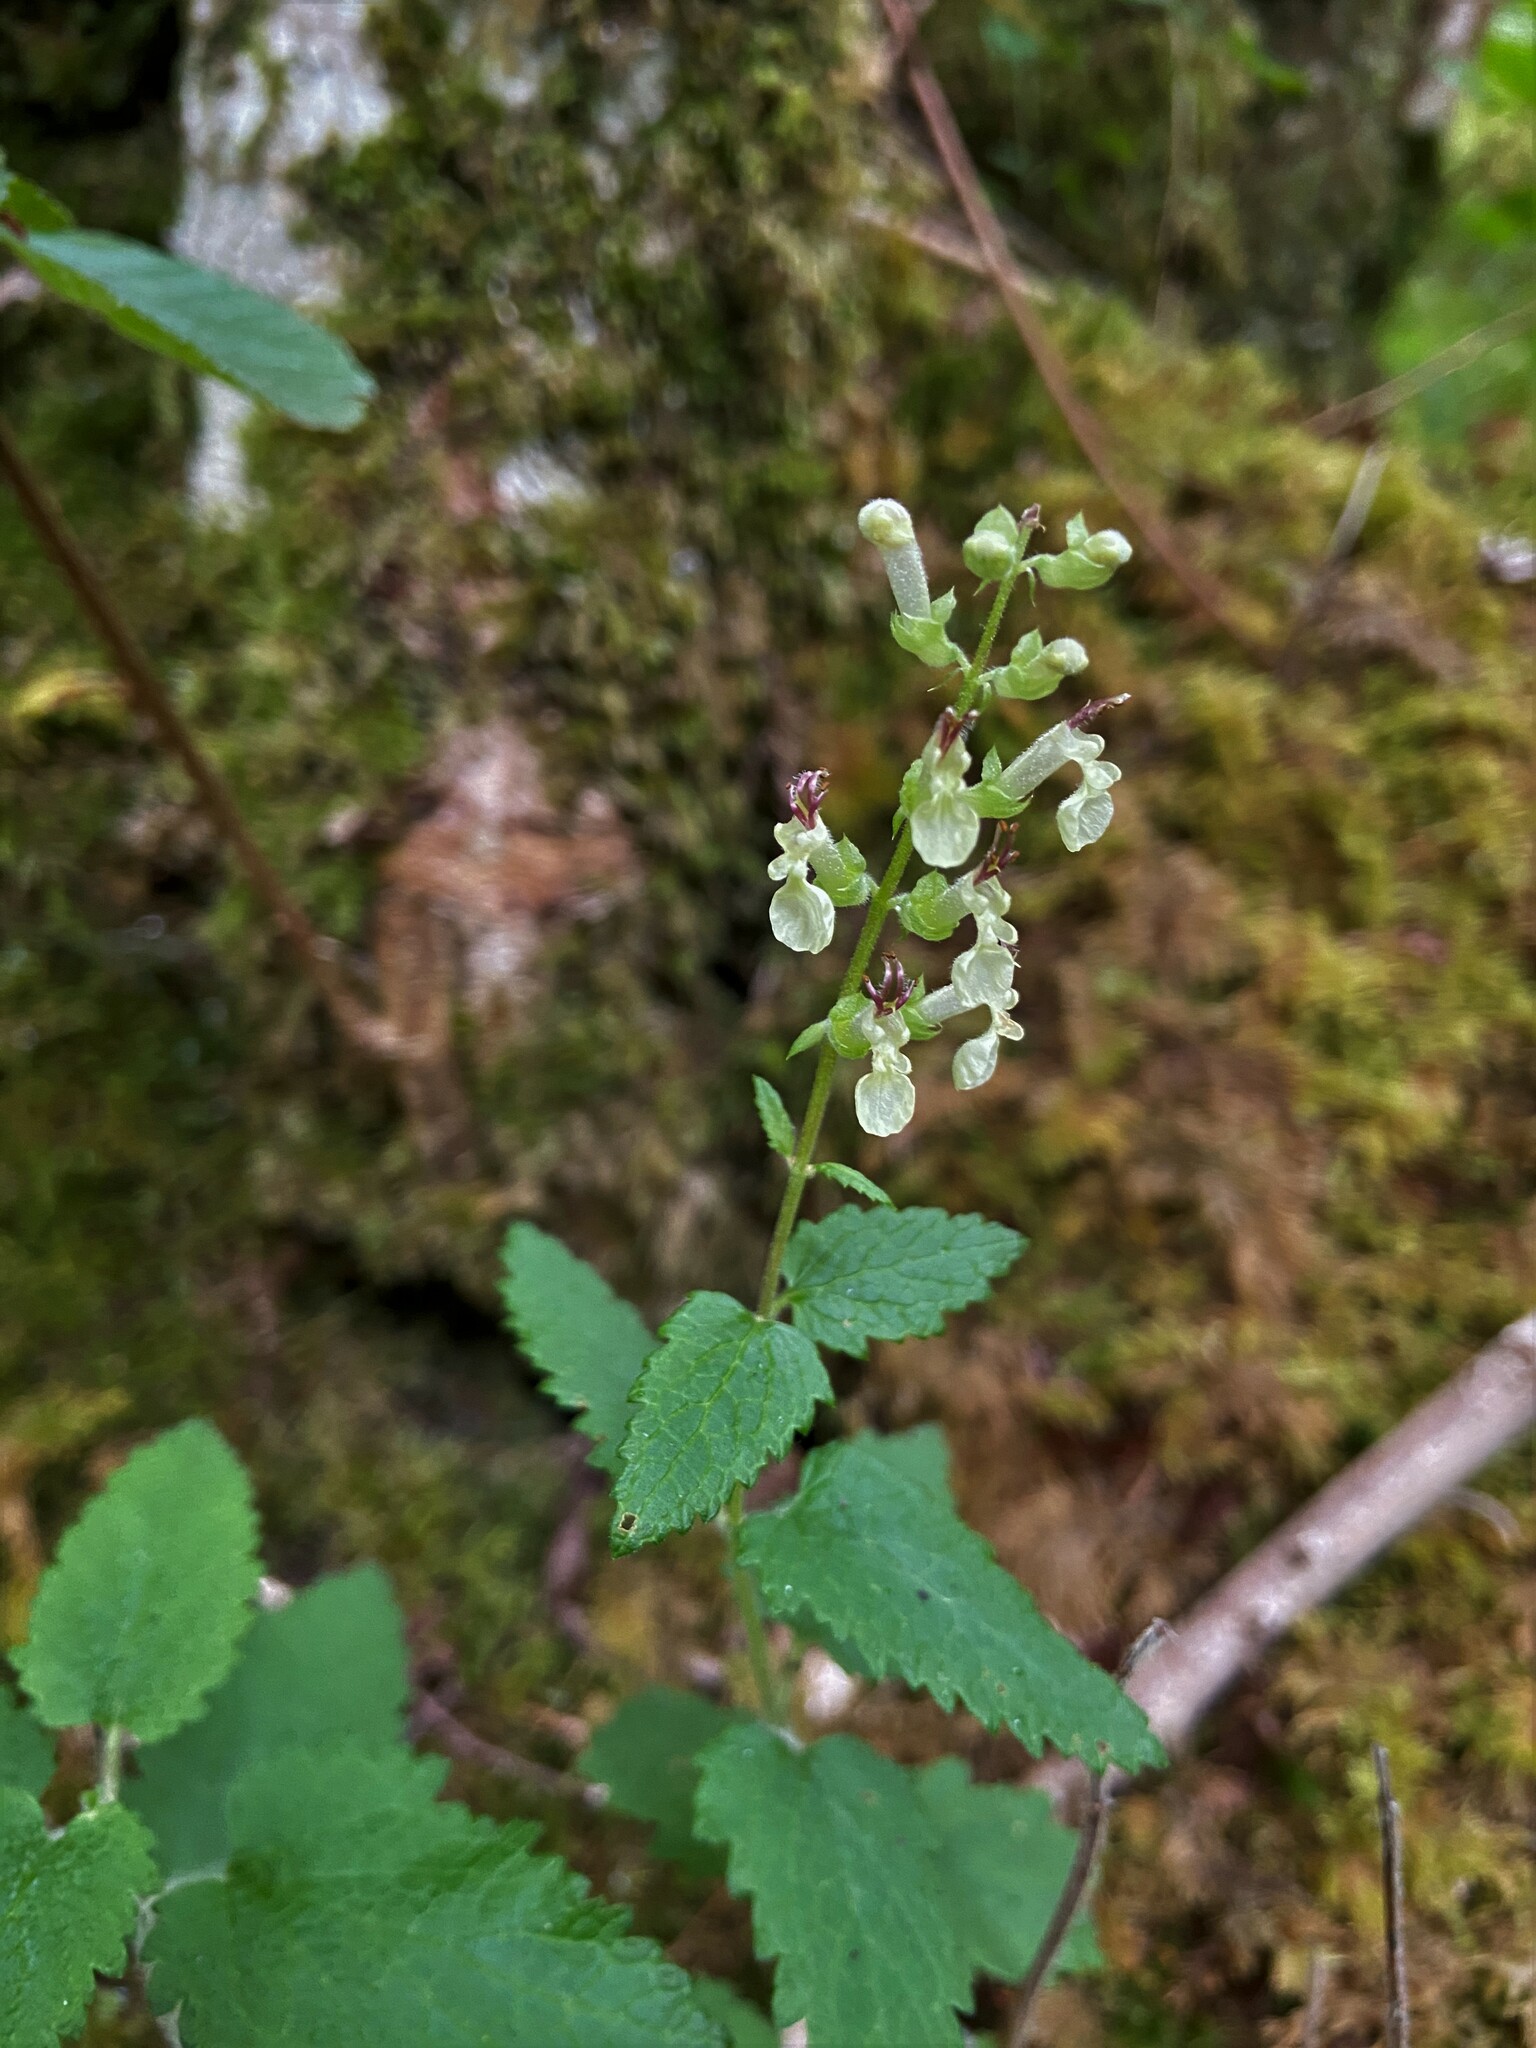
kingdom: Plantae
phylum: Tracheophyta
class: Magnoliopsida
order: Lamiales
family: Lamiaceae
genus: Teucrium
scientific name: Teucrium scorodonia
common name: Woodland germander
